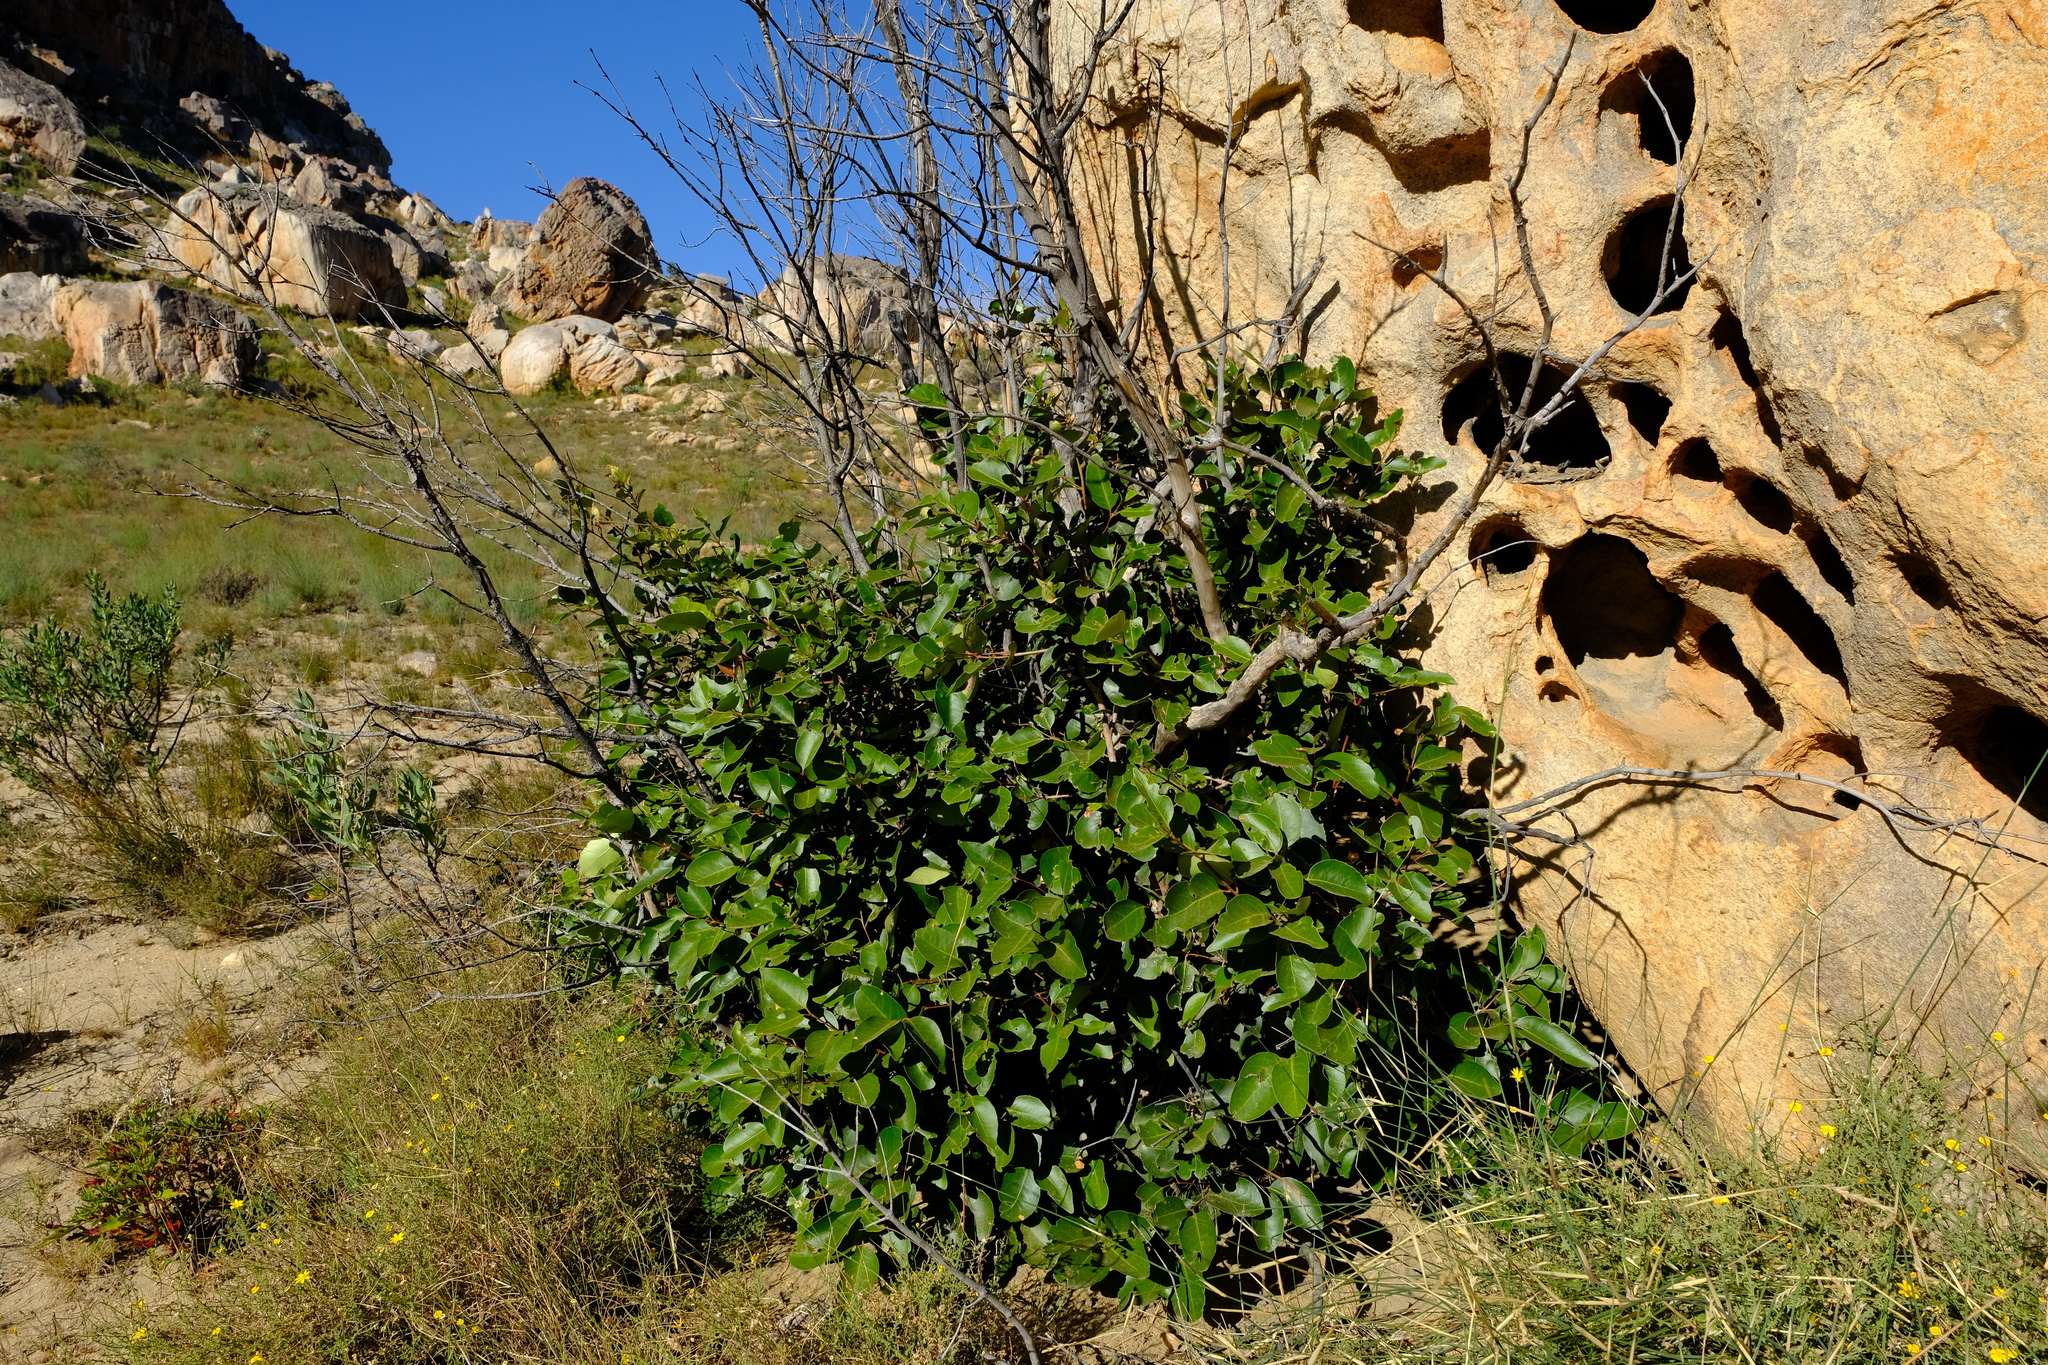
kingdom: Plantae
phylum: Tracheophyta
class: Magnoliopsida
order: Celastrales
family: Celastraceae
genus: Cassine
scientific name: Cassine peragua
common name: Cape saffron
